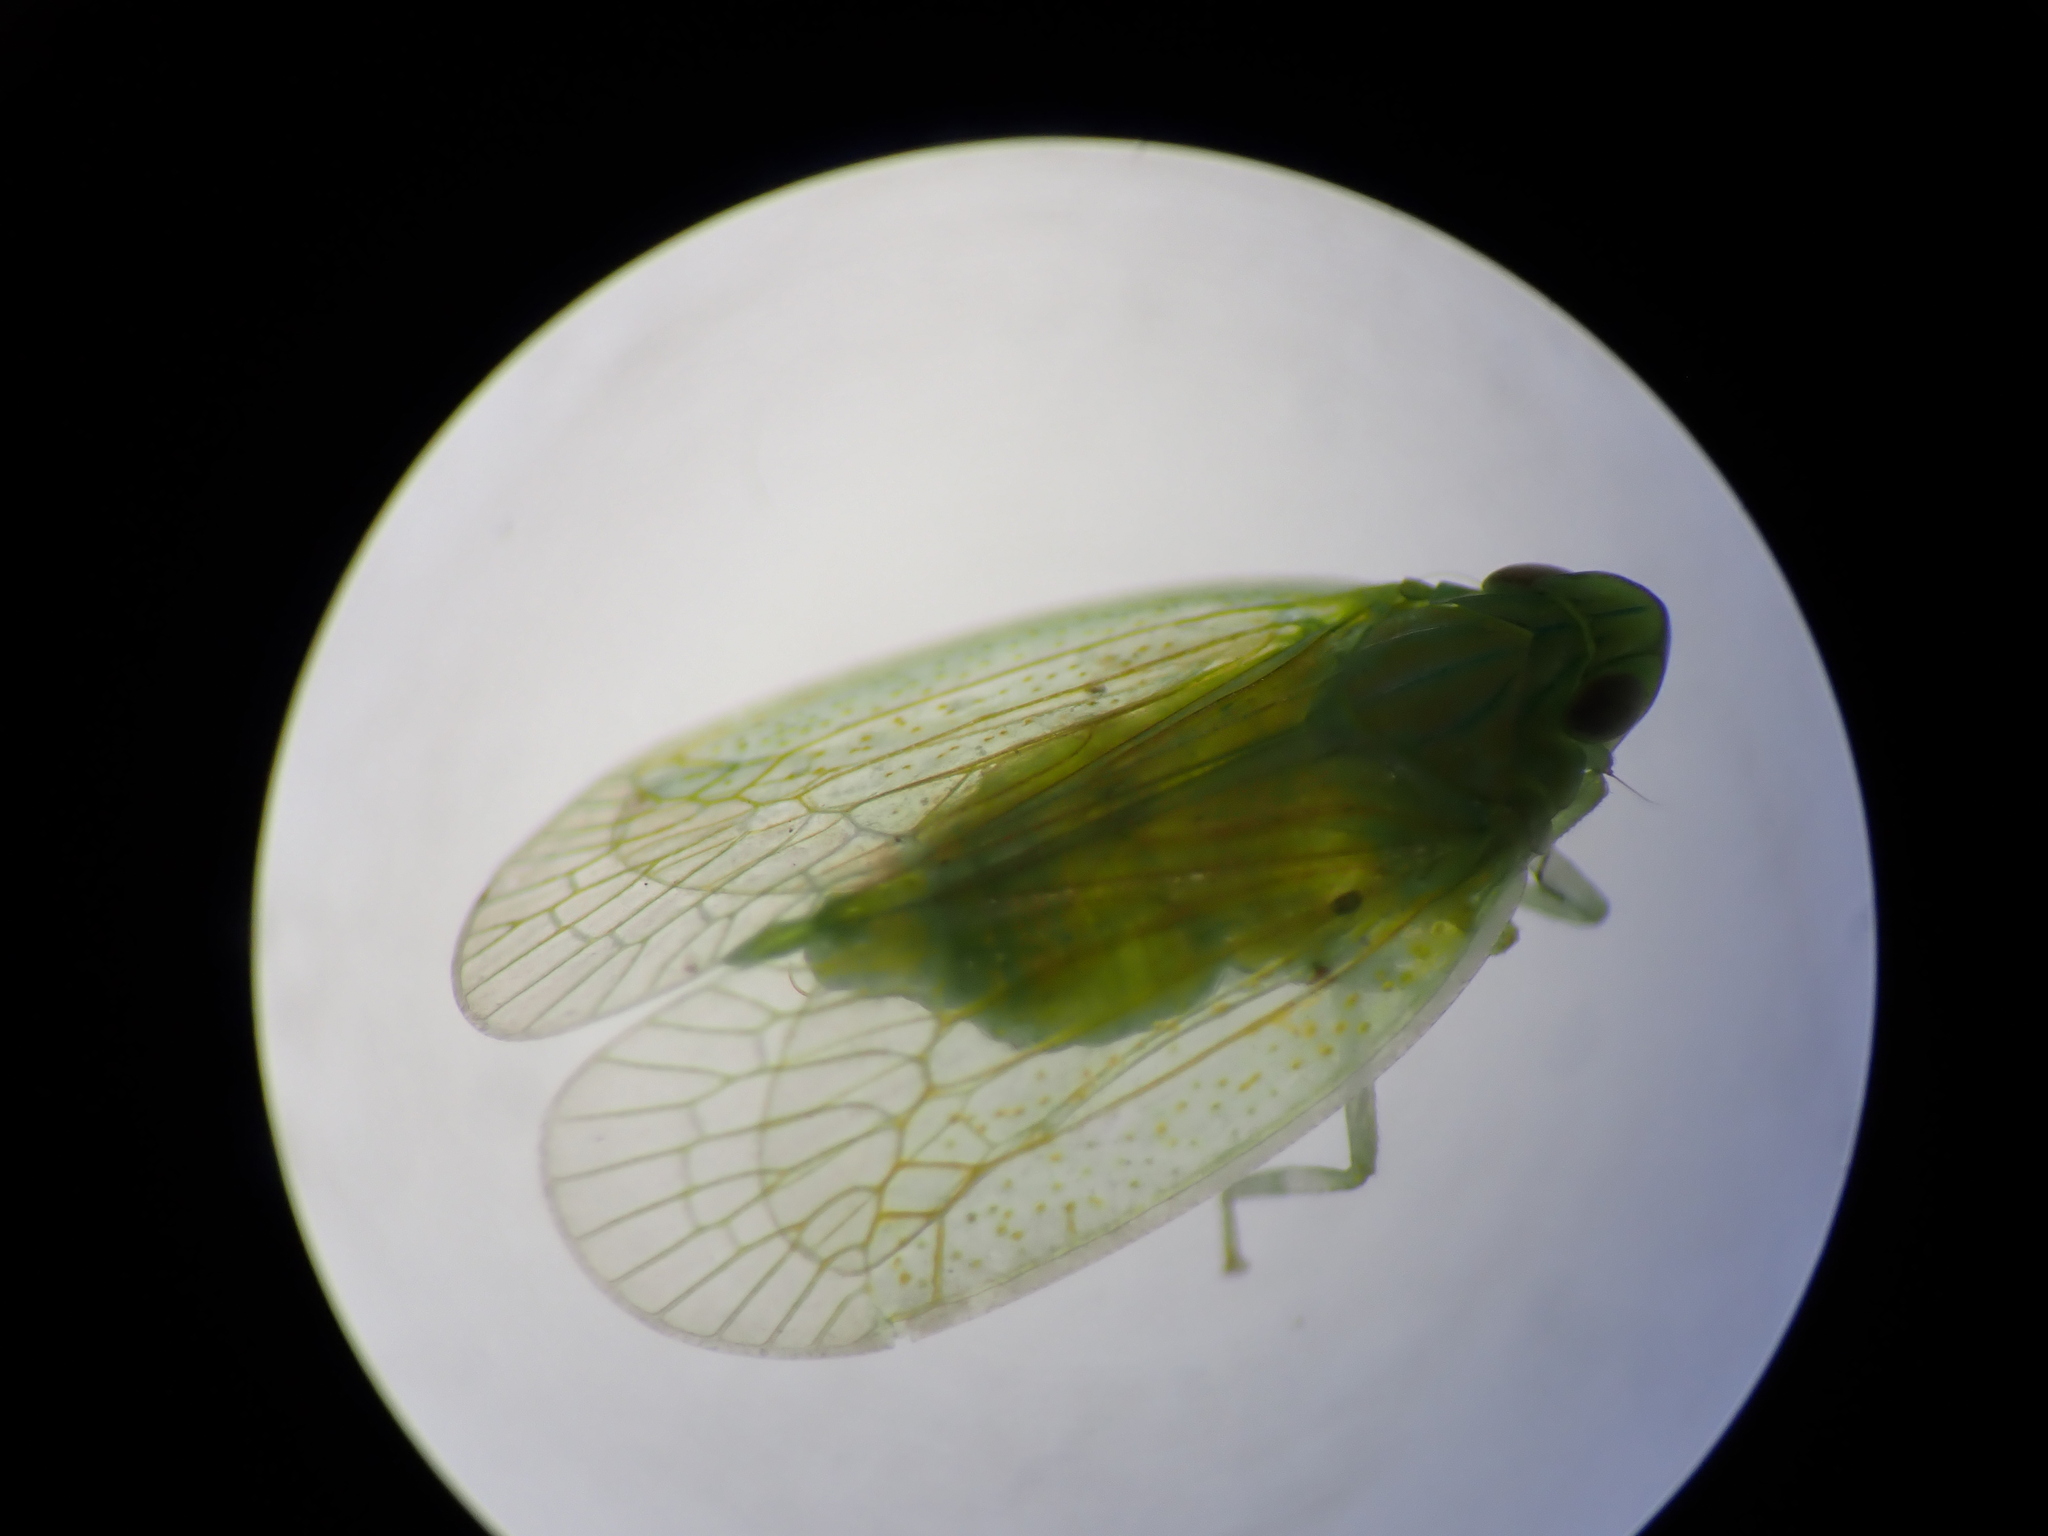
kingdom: Animalia
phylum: Arthropoda
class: Insecta
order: Hemiptera
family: Tropiduchidae
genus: Kallitaxila
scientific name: Kallitaxila granulata
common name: Planthopper
